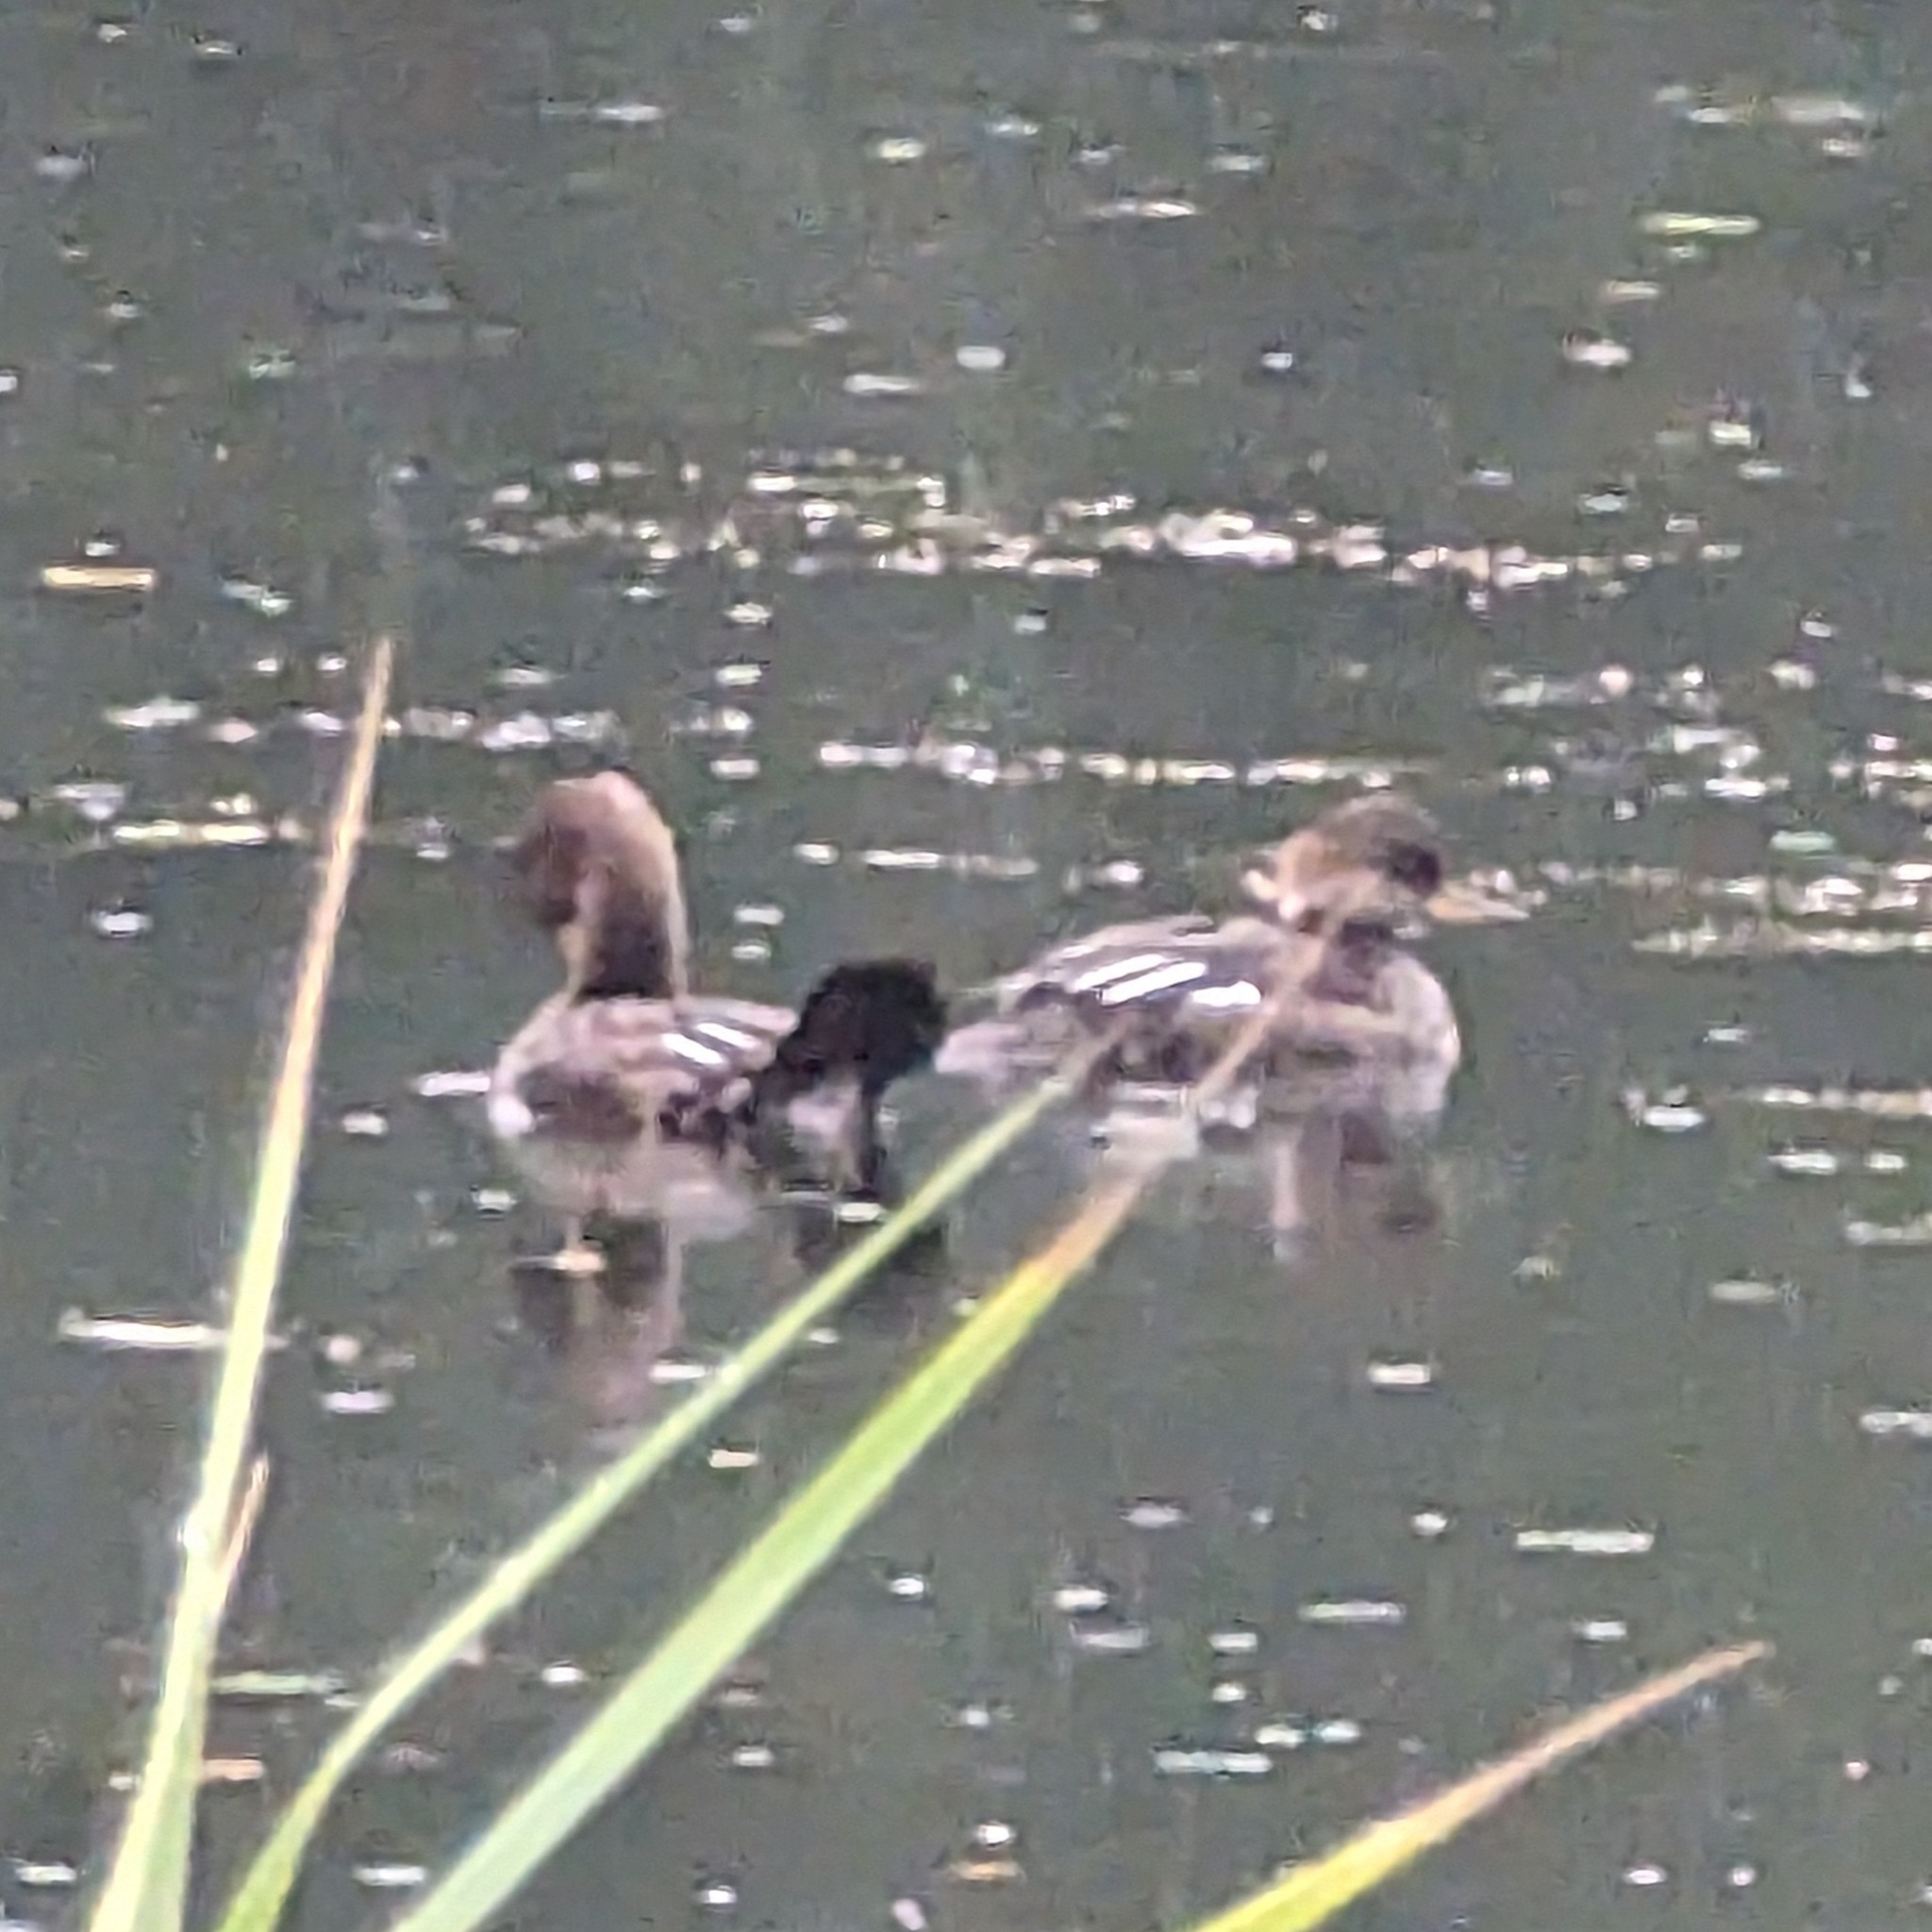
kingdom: Animalia
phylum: Chordata
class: Aves
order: Anseriformes
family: Anatidae
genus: Lophodytes
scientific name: Lophodytes cucullatus
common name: Hooded merganser
